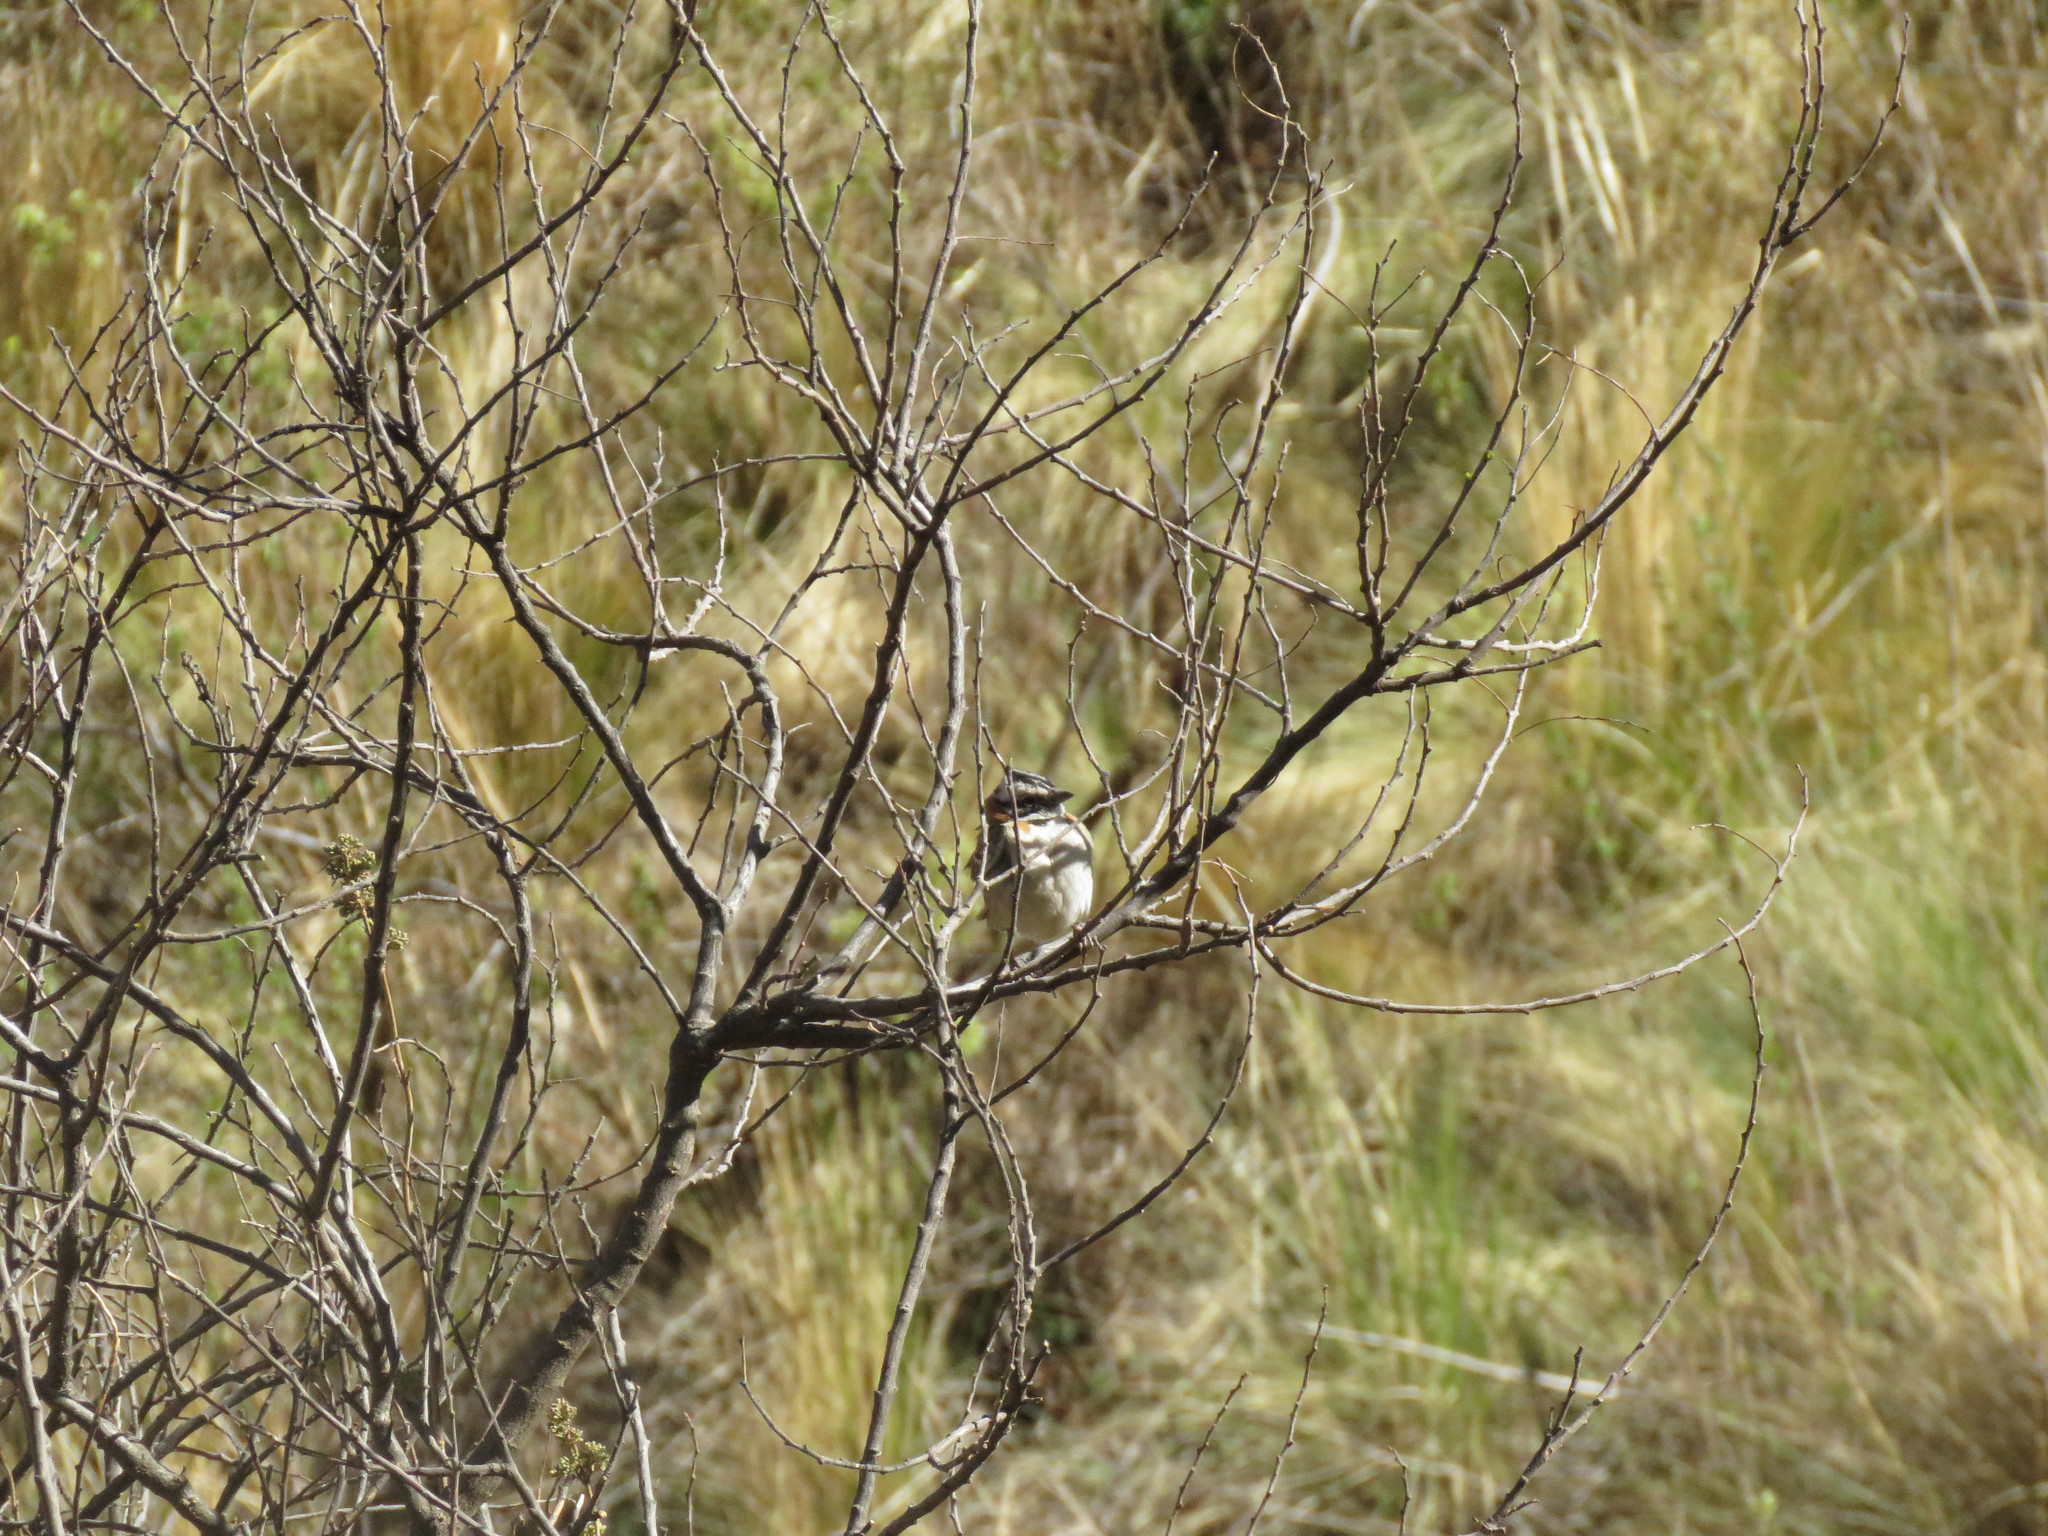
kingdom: Animalia
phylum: Chordata
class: Aves
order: Passeriformes
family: Passerellidae
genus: Zonotrichia
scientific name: Zonotrichia capensis
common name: Rufous-collared sparrow
